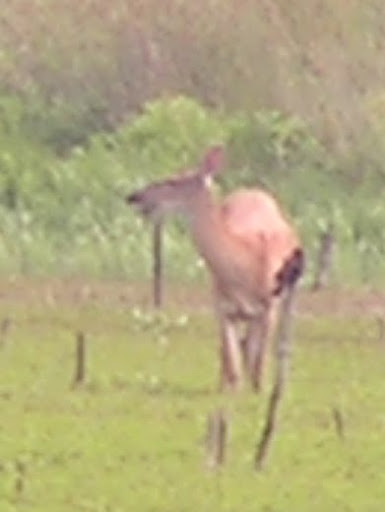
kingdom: Animalia
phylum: Chordata
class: Mammalia
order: Artiodactyla
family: Cervidae
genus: Odocoileus
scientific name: Odocoileus virginianus
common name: White-tailed deer
